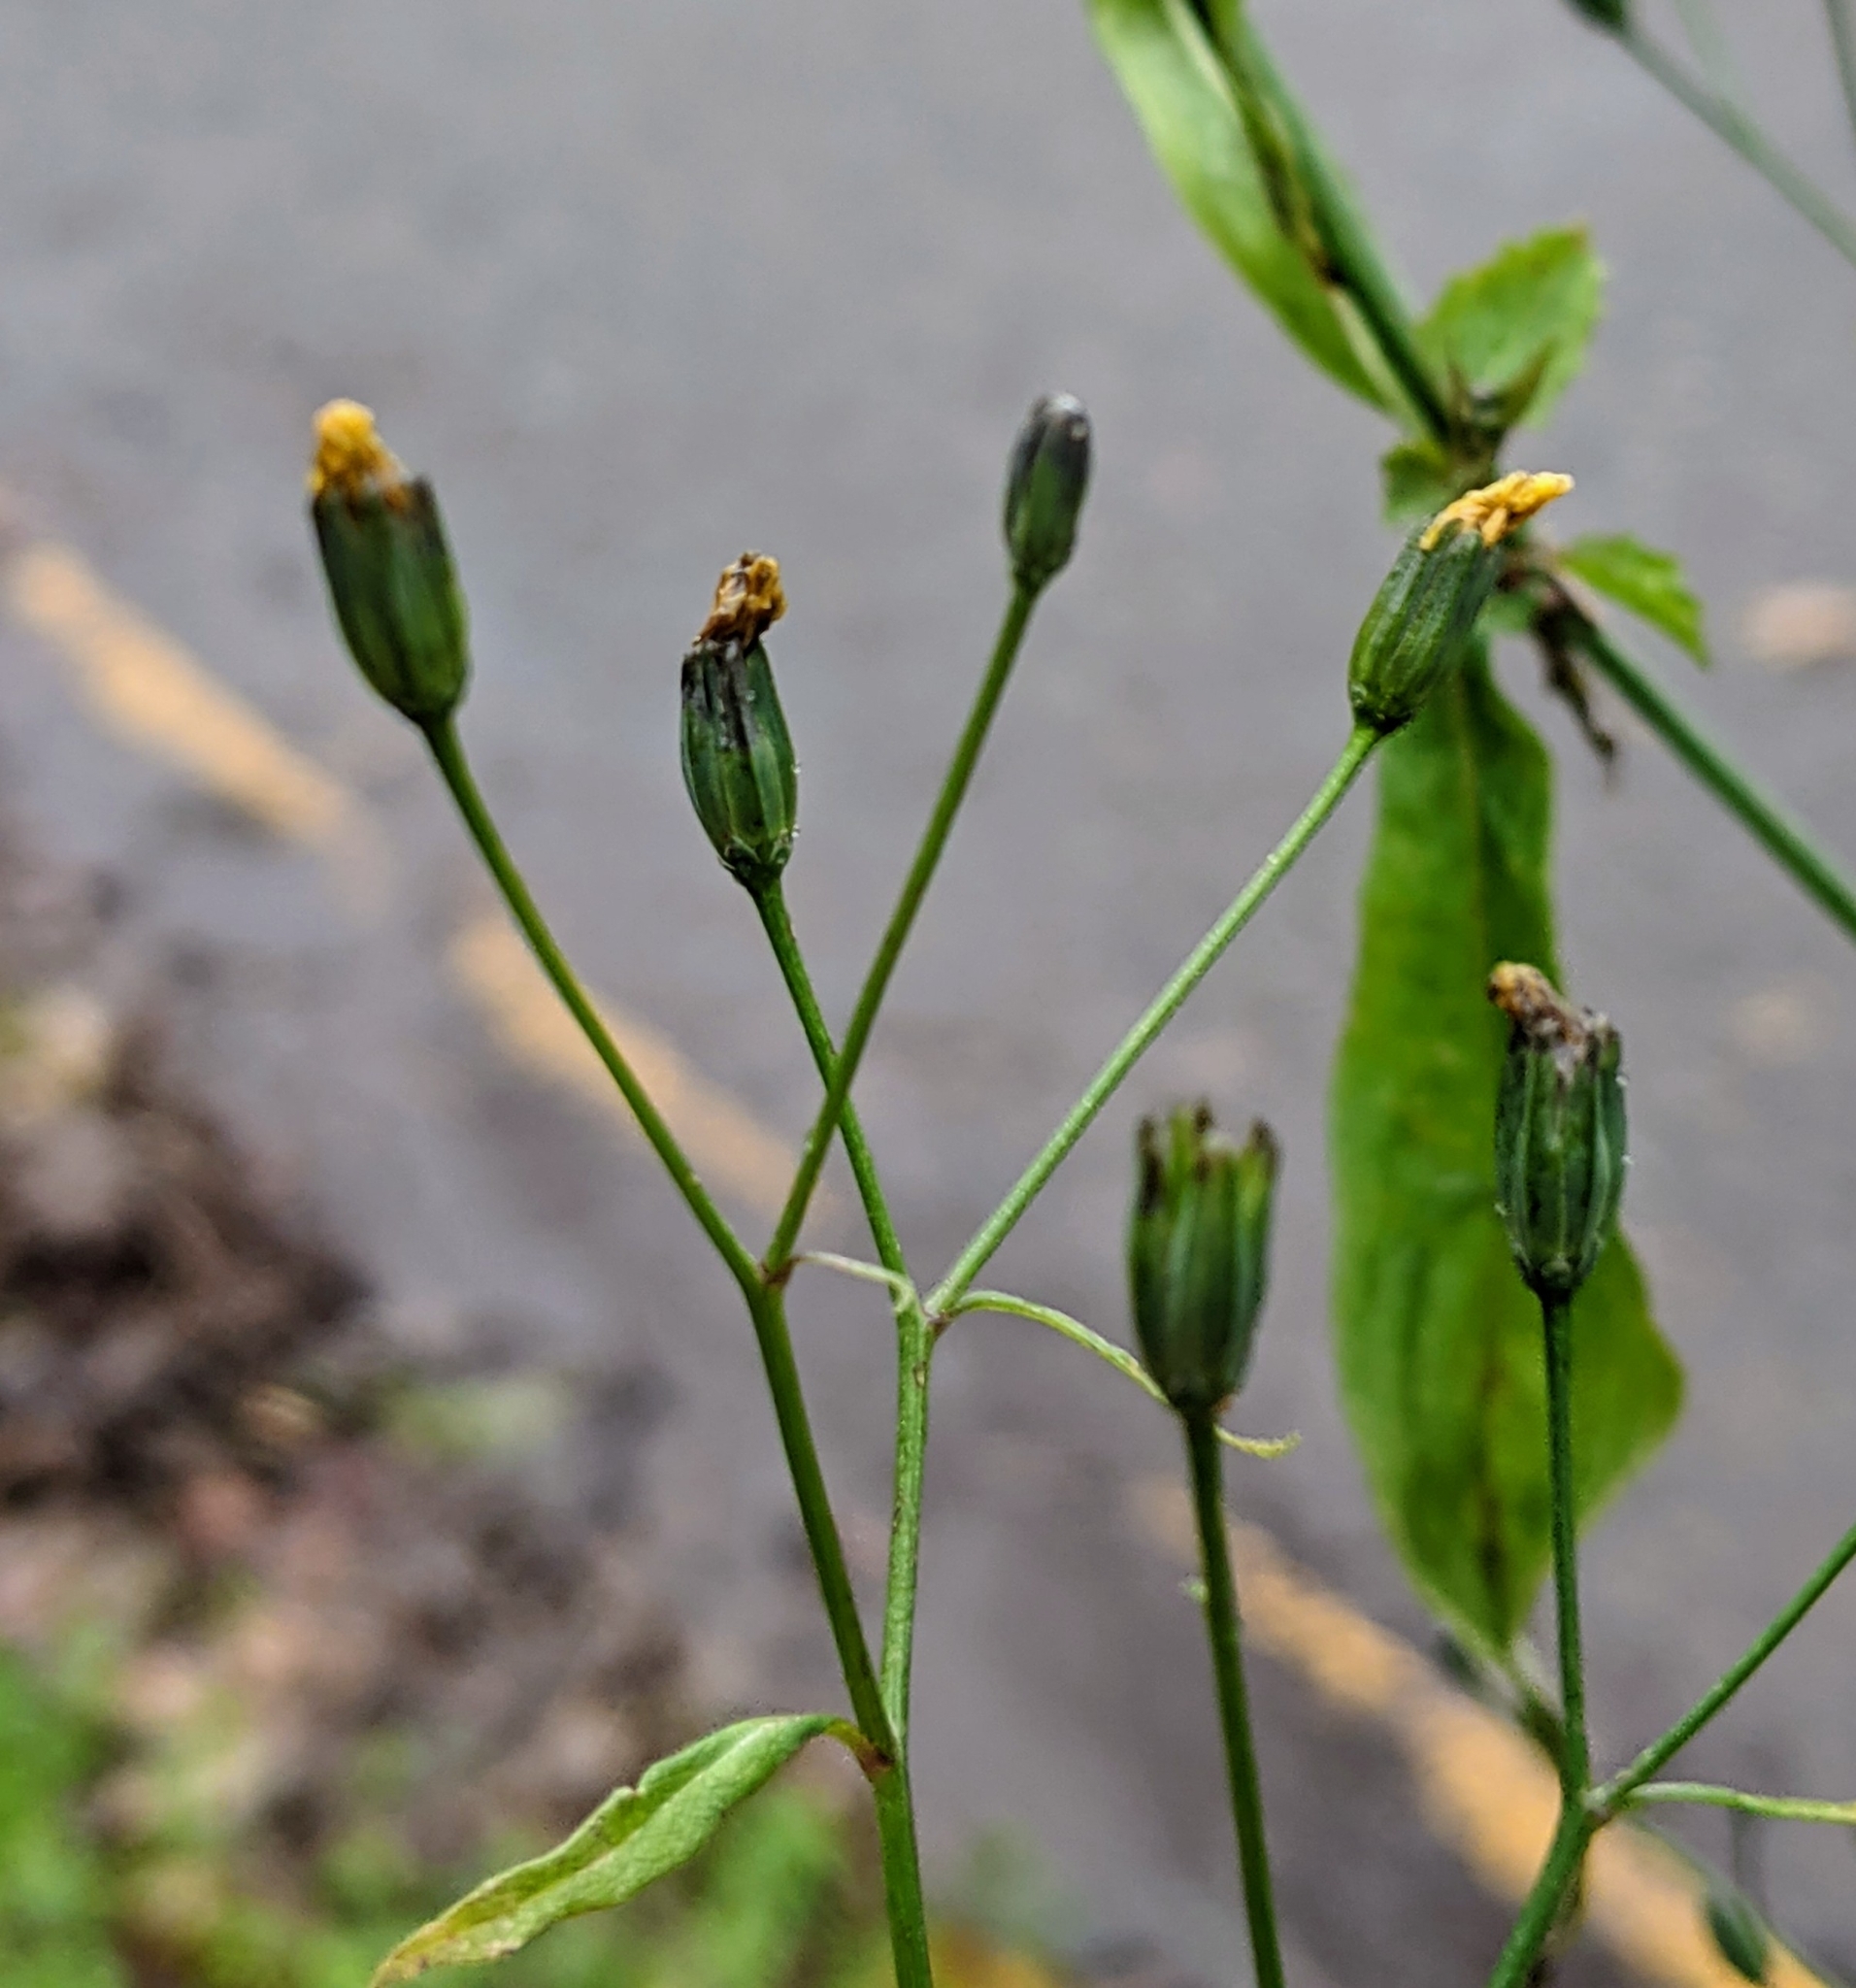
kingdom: Plantae
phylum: Tracheophyta
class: Magnoliopsida
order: Asterales
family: Asteraceae
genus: Lapsana
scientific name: Lapsana communis
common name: Nipplewort
